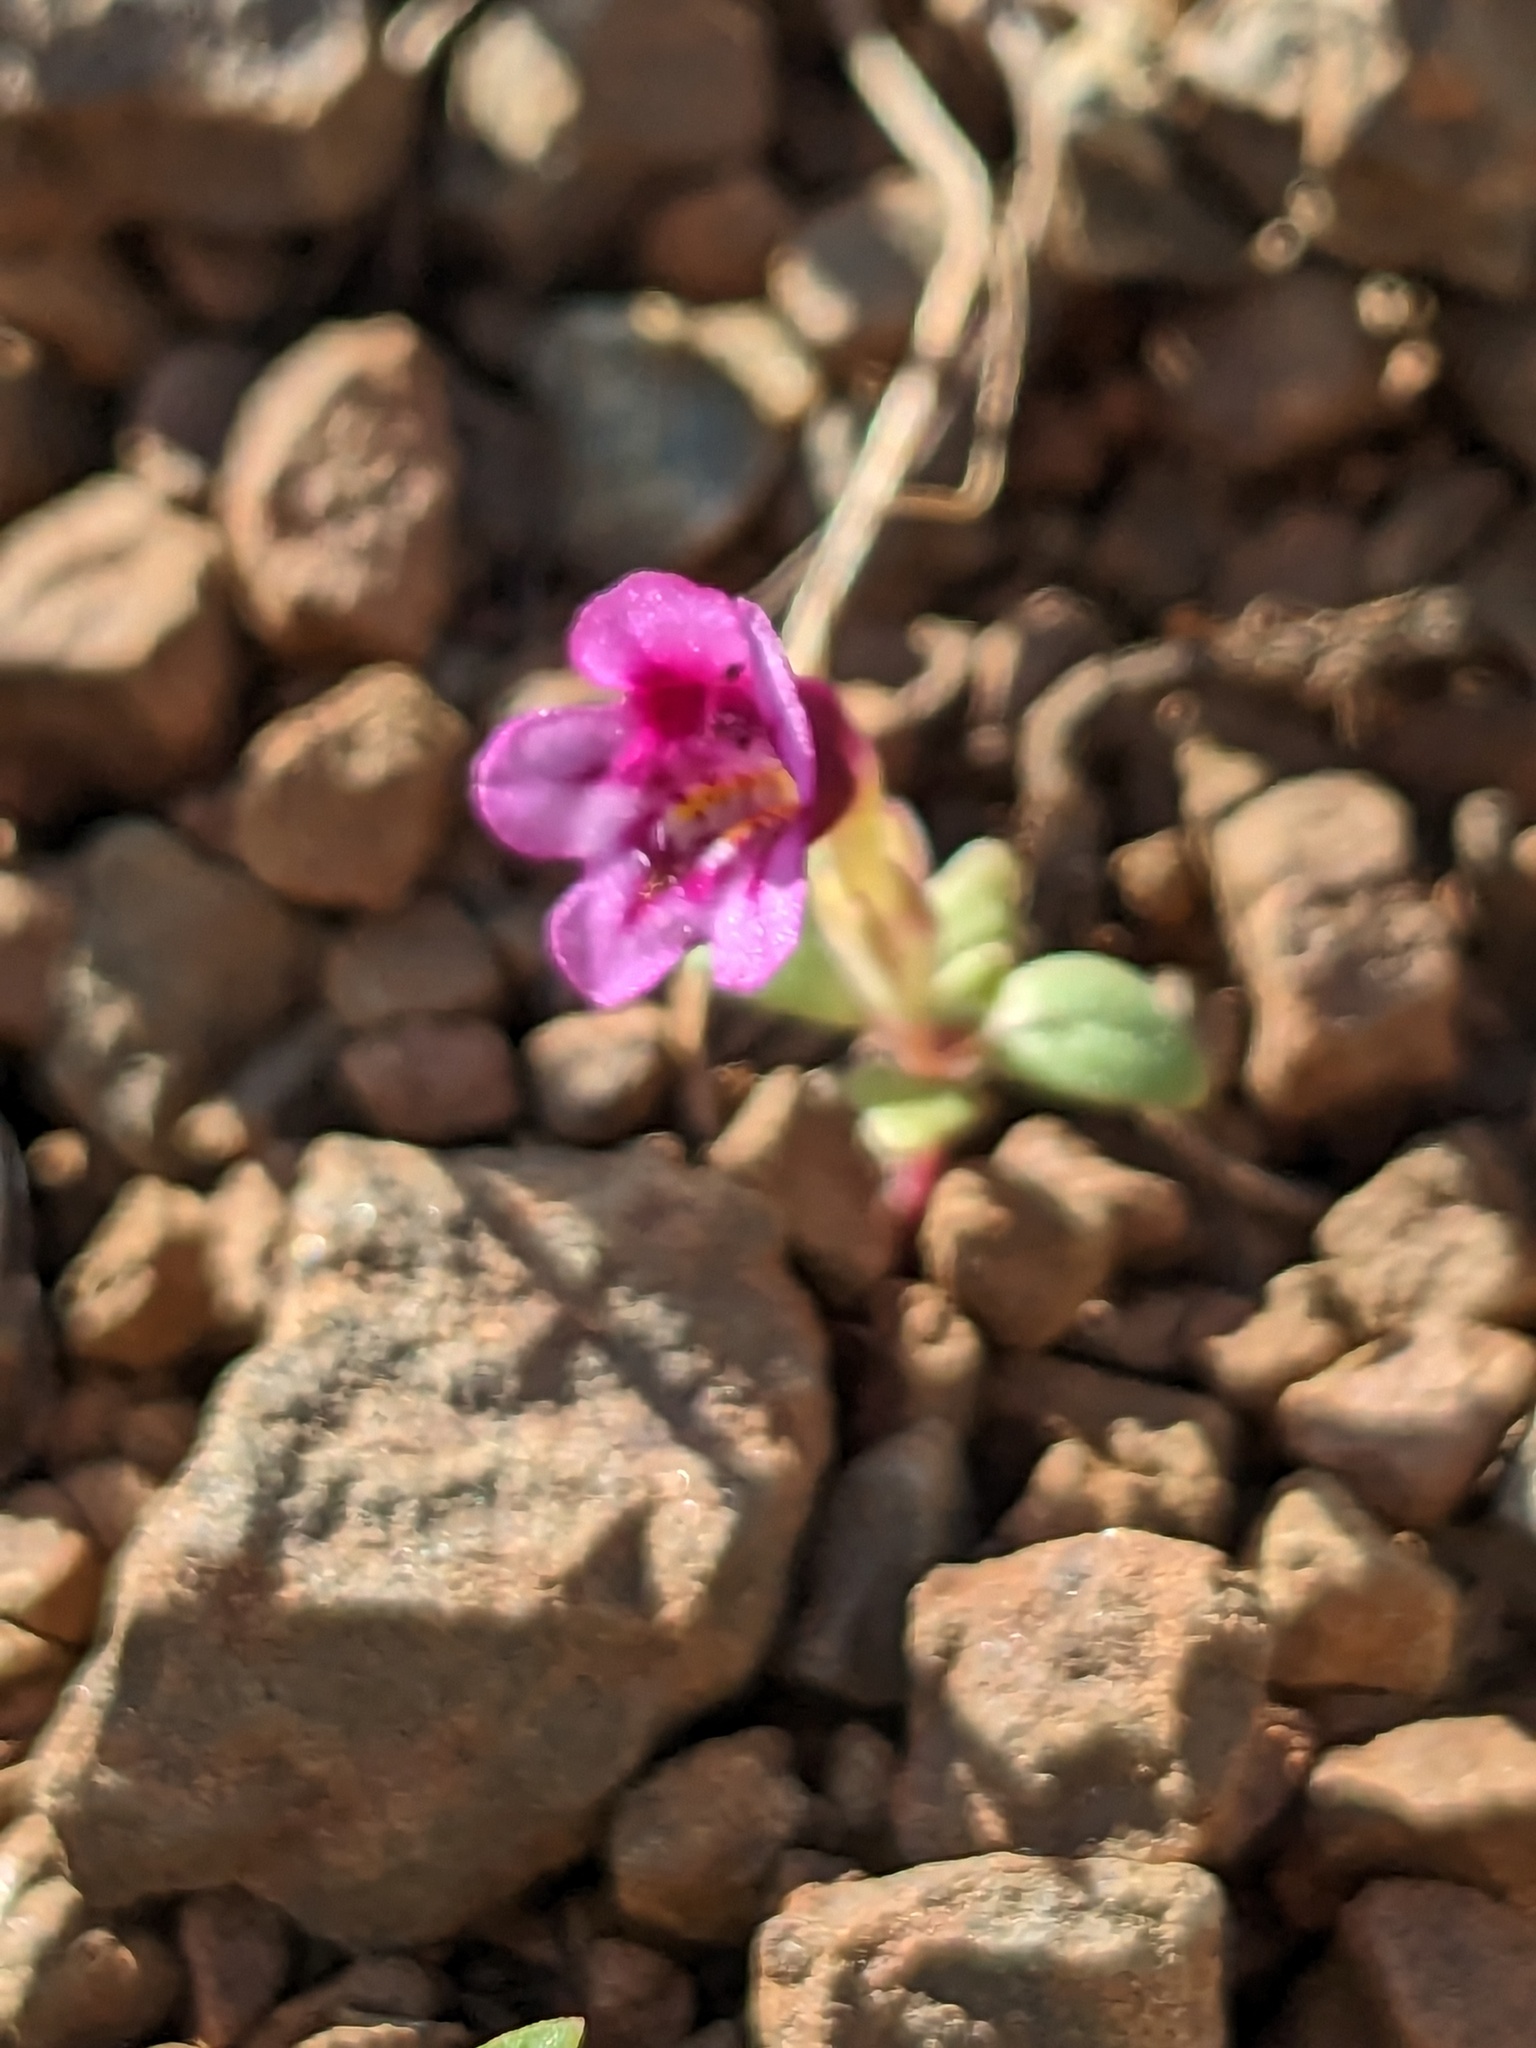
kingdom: Plantae
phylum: Tracheophyta
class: Magnoliopsida
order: Lamiales
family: Phrymaceae
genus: Diplacus
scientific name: Diplacus nanus
